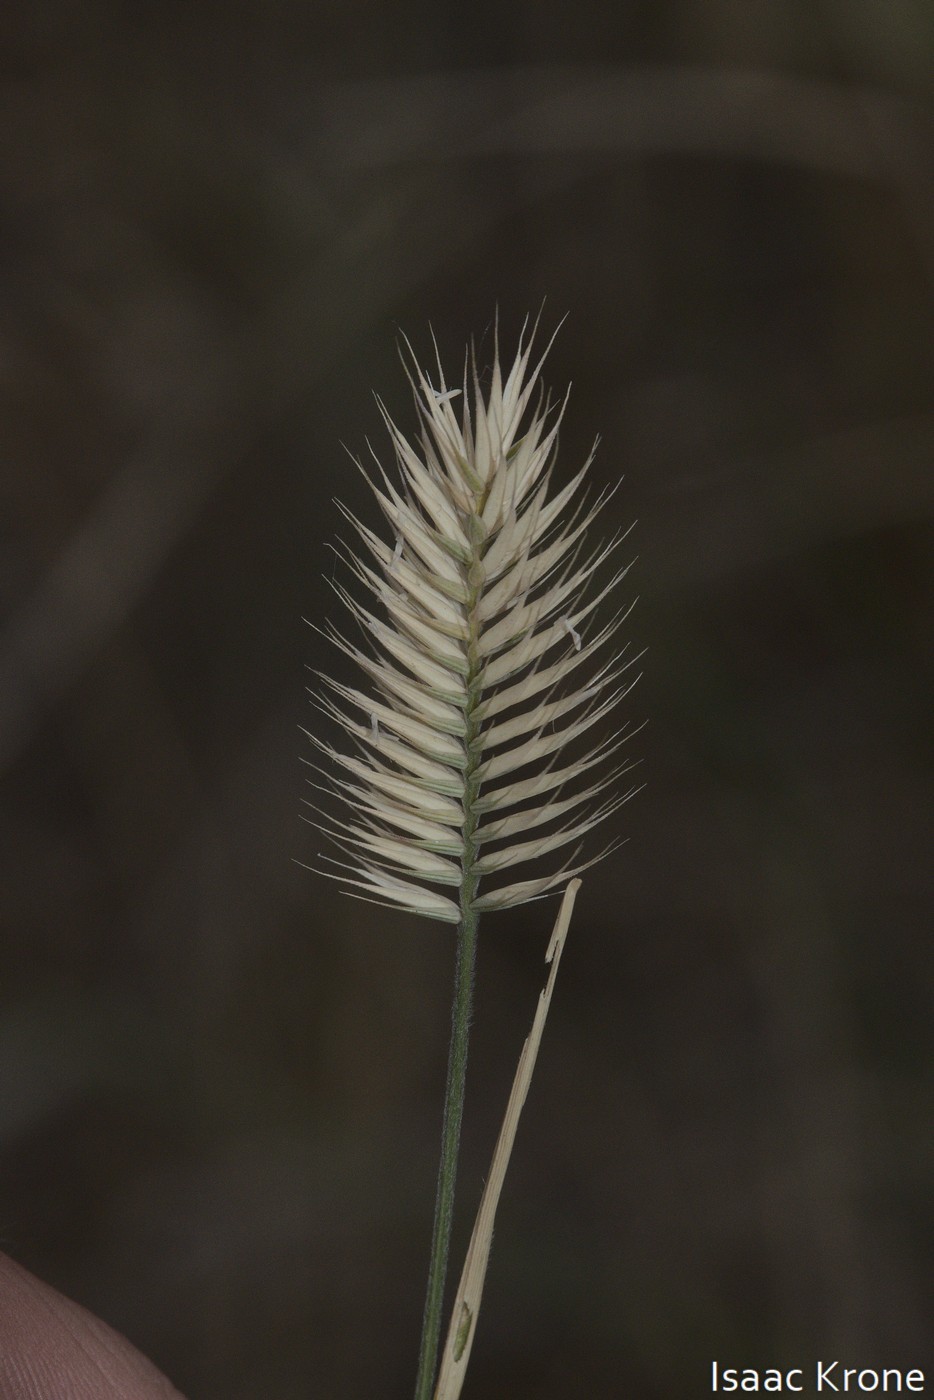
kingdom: Plantae
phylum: Tracheophyta
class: Liliopsida
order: Poales
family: Poaceae
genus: Agropyron
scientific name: Agropyron cristatum
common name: Crested wheatgrass
